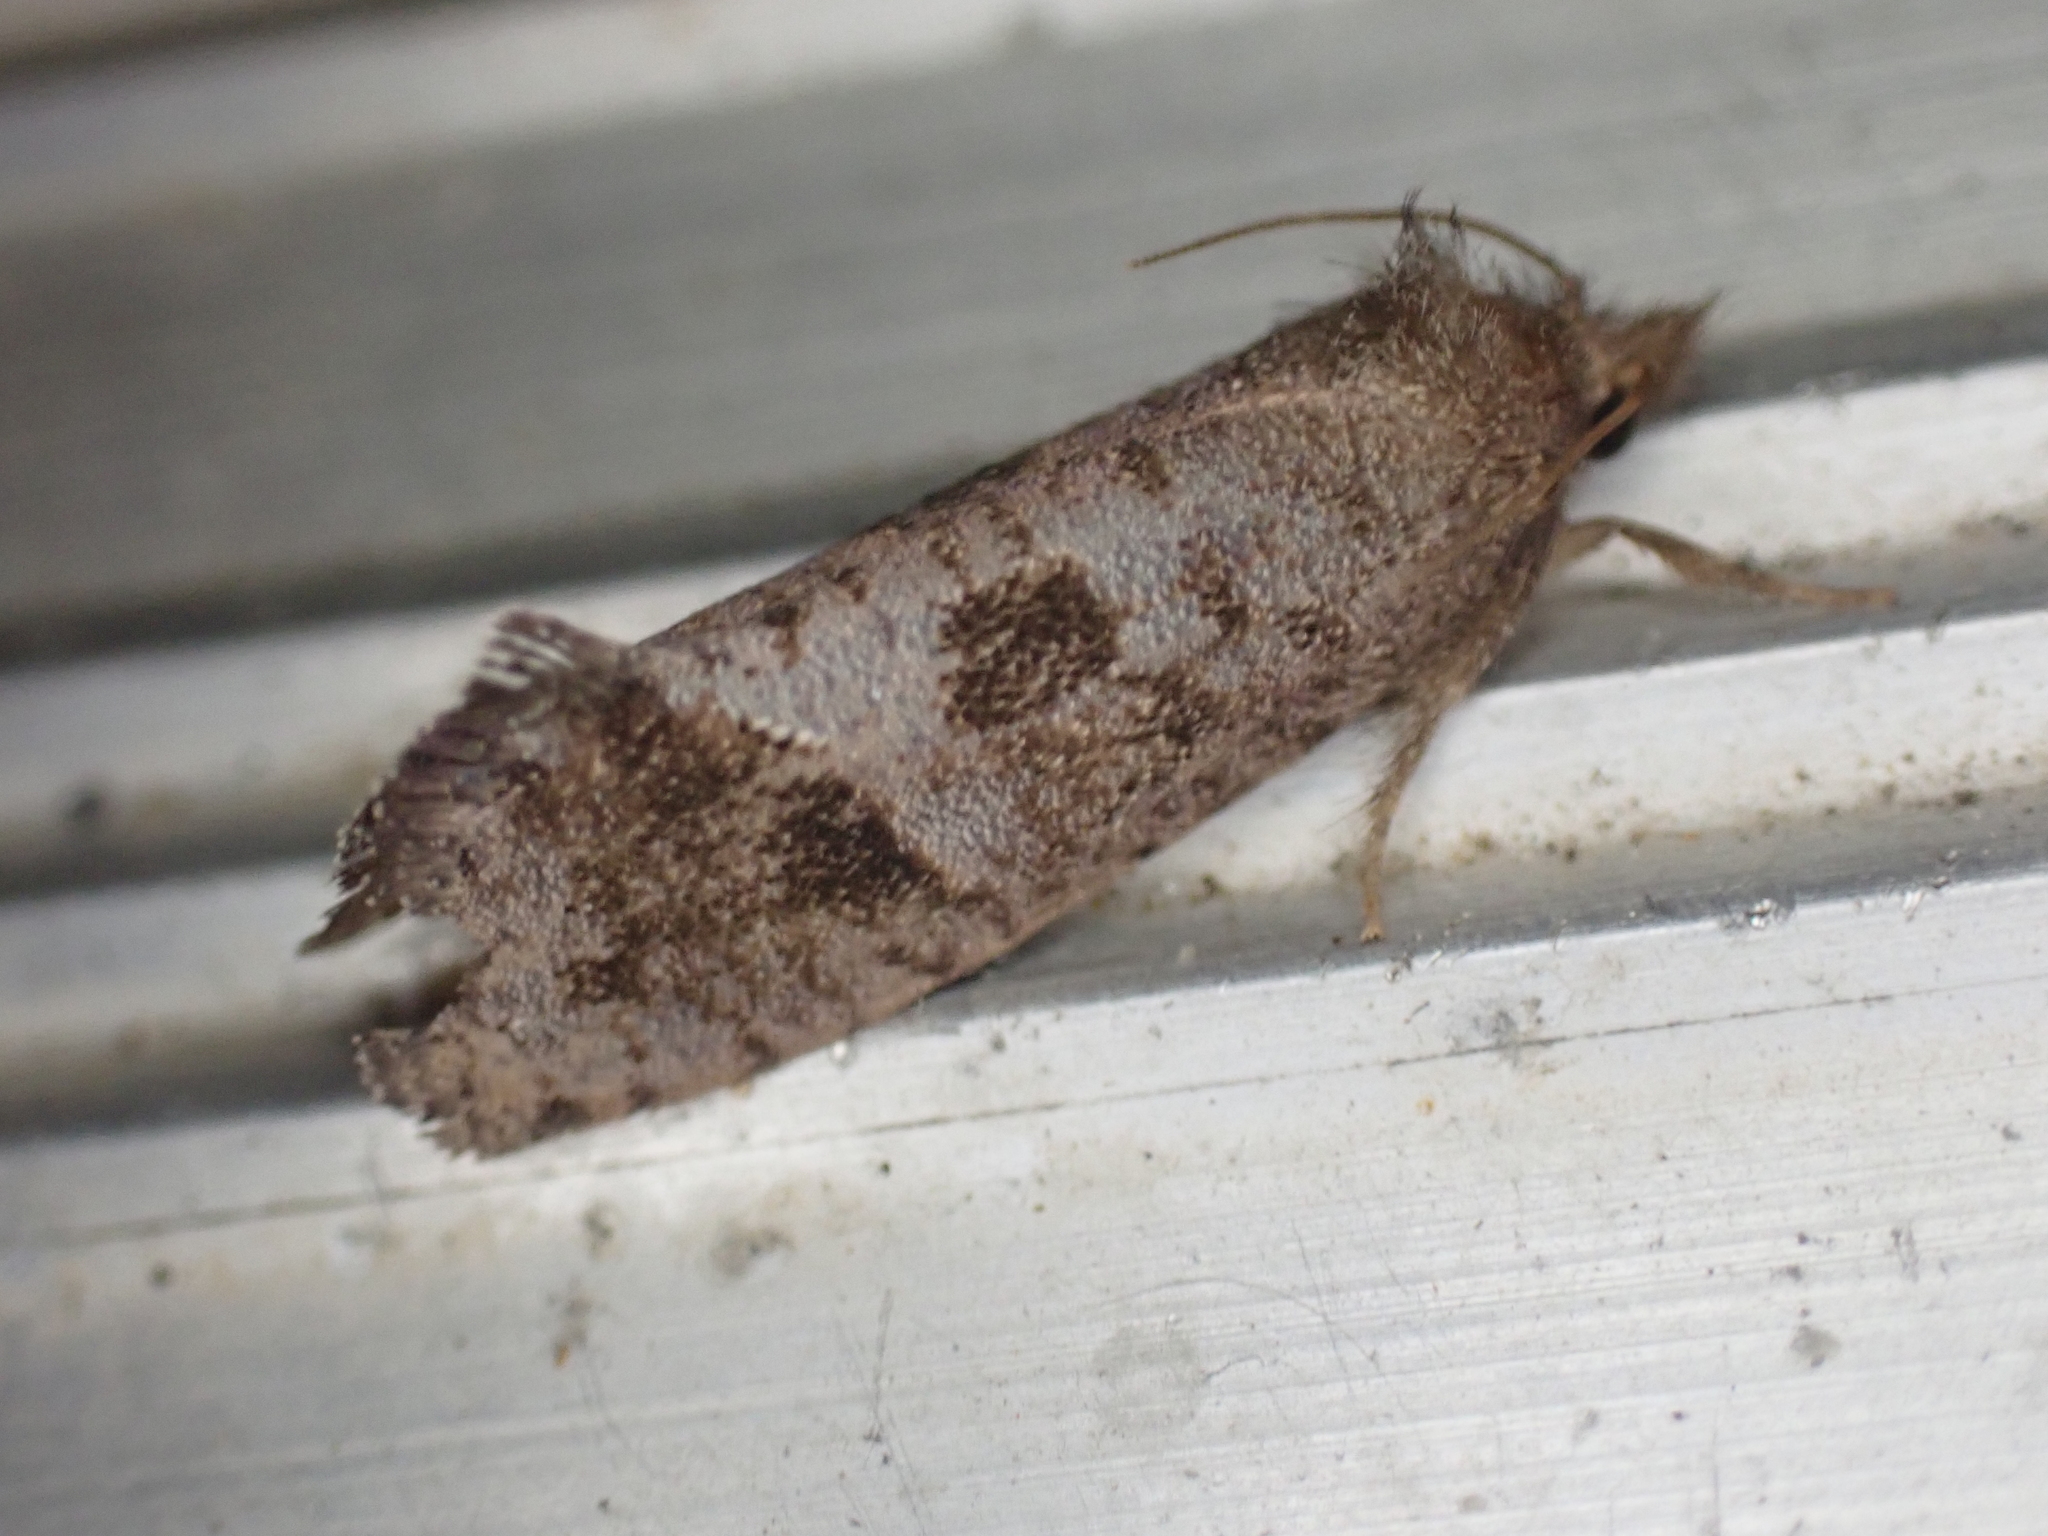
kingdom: Animalia
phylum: Arthropoda
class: Insecta
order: Lepidoptera
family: Tineidae
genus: Acrolophus
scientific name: Acrolophus texanella
